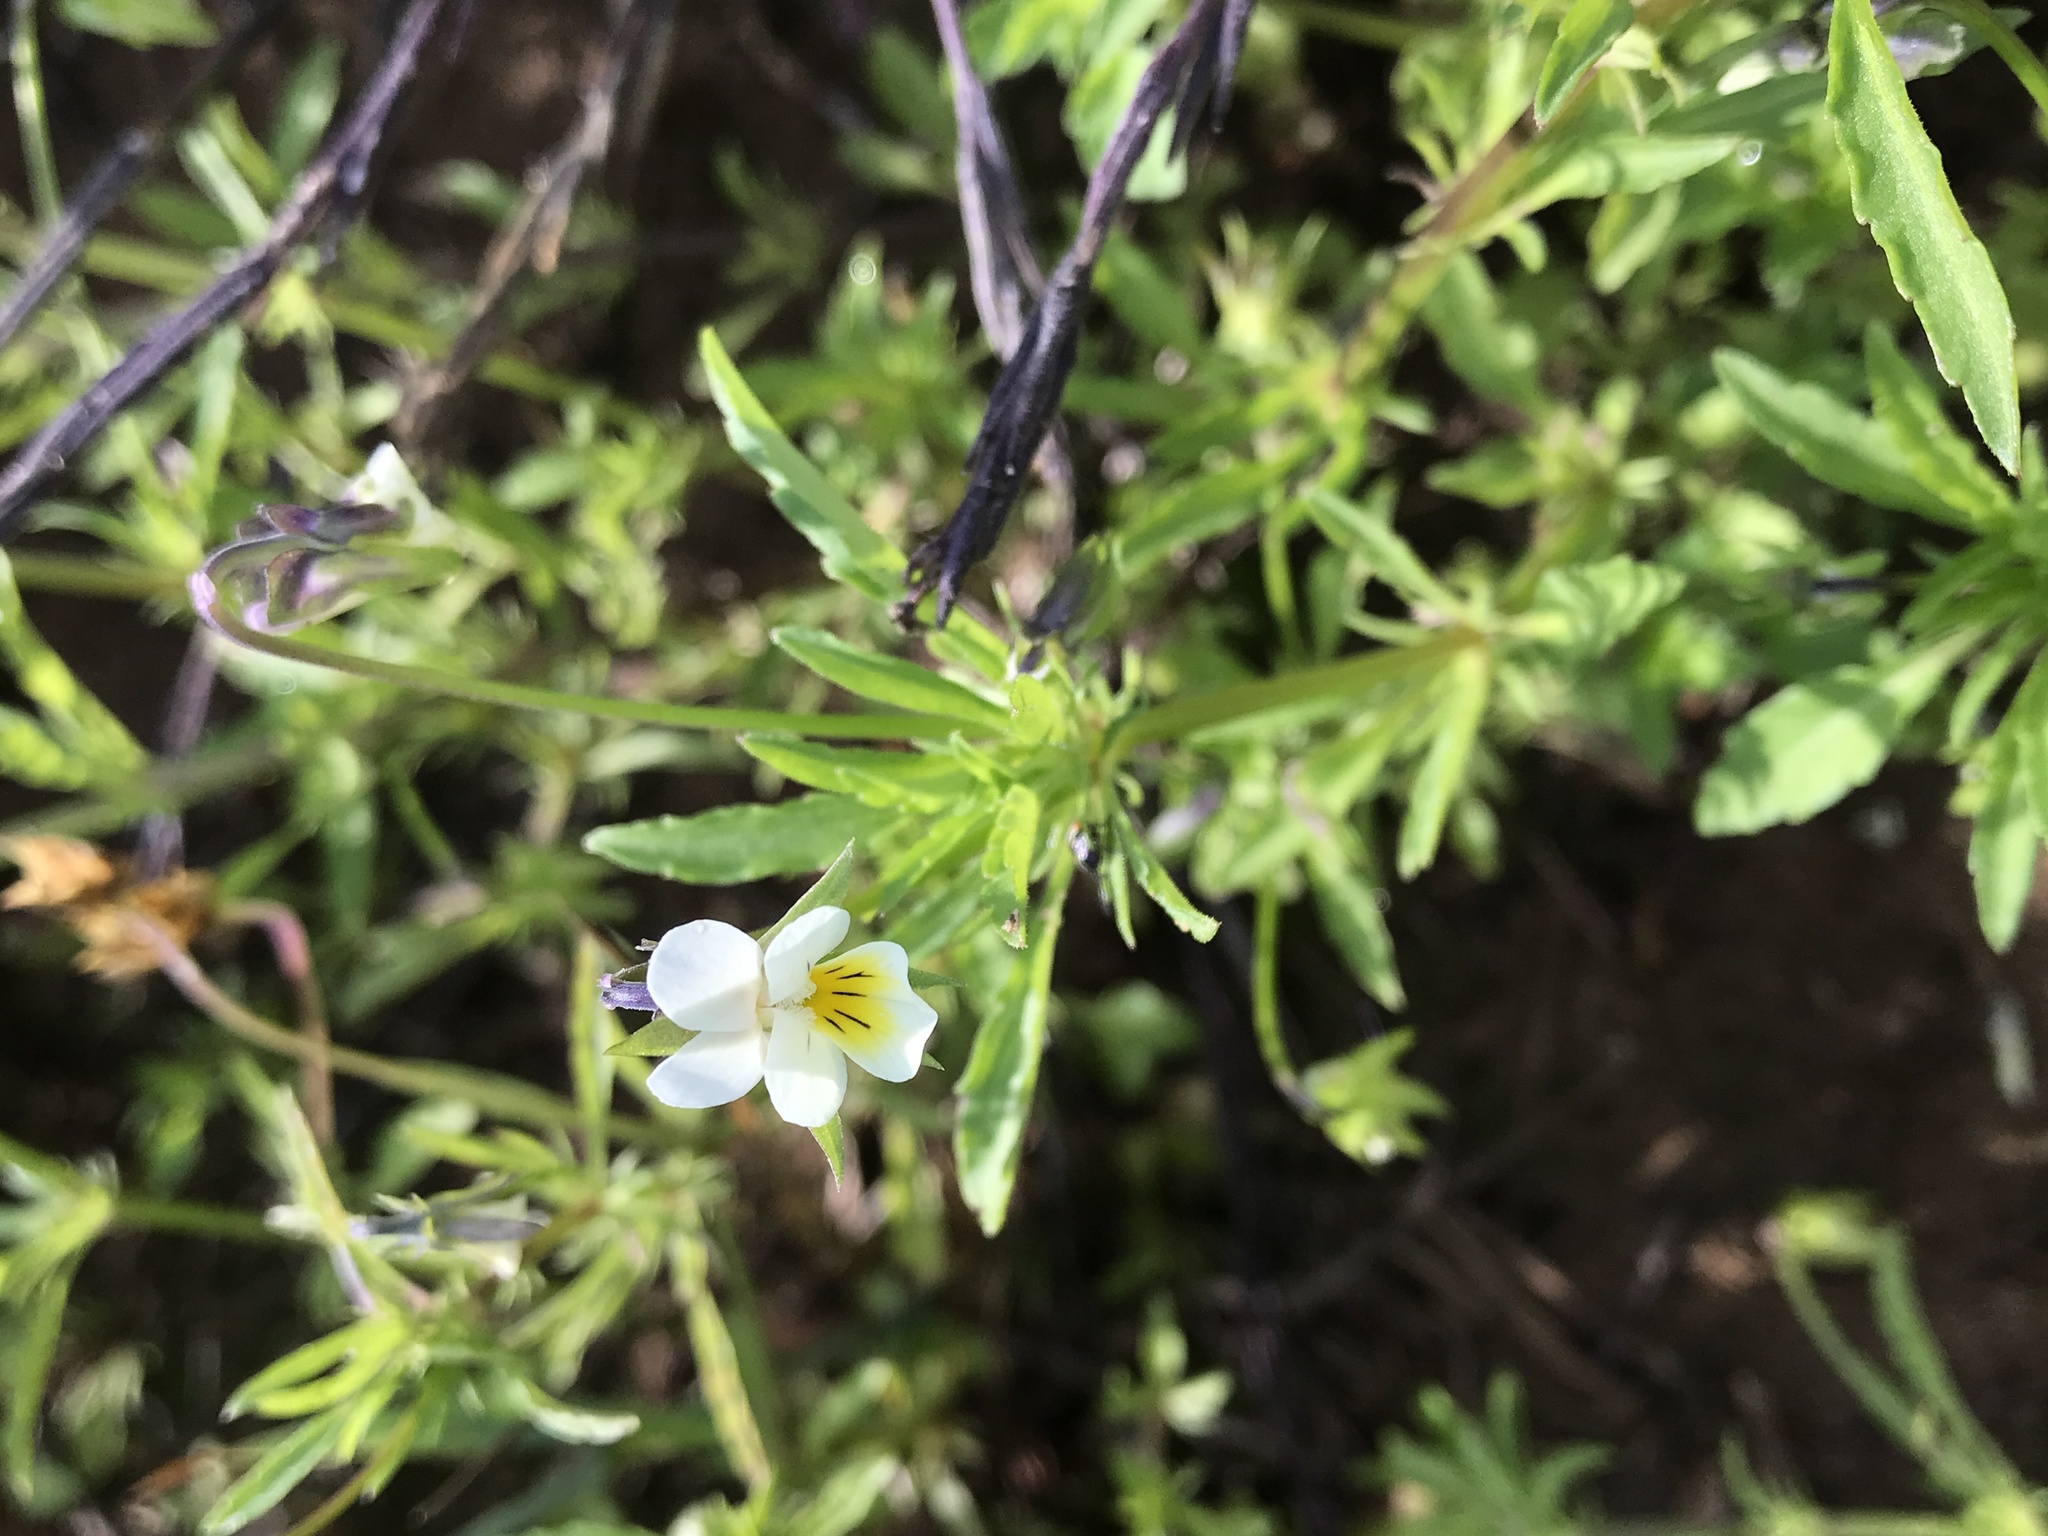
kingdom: Plantae
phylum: Tracheophyta
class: Magnoliopsida
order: Malpighiales
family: Violaceae
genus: Viola
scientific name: Viola arvensis
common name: Field pansy
